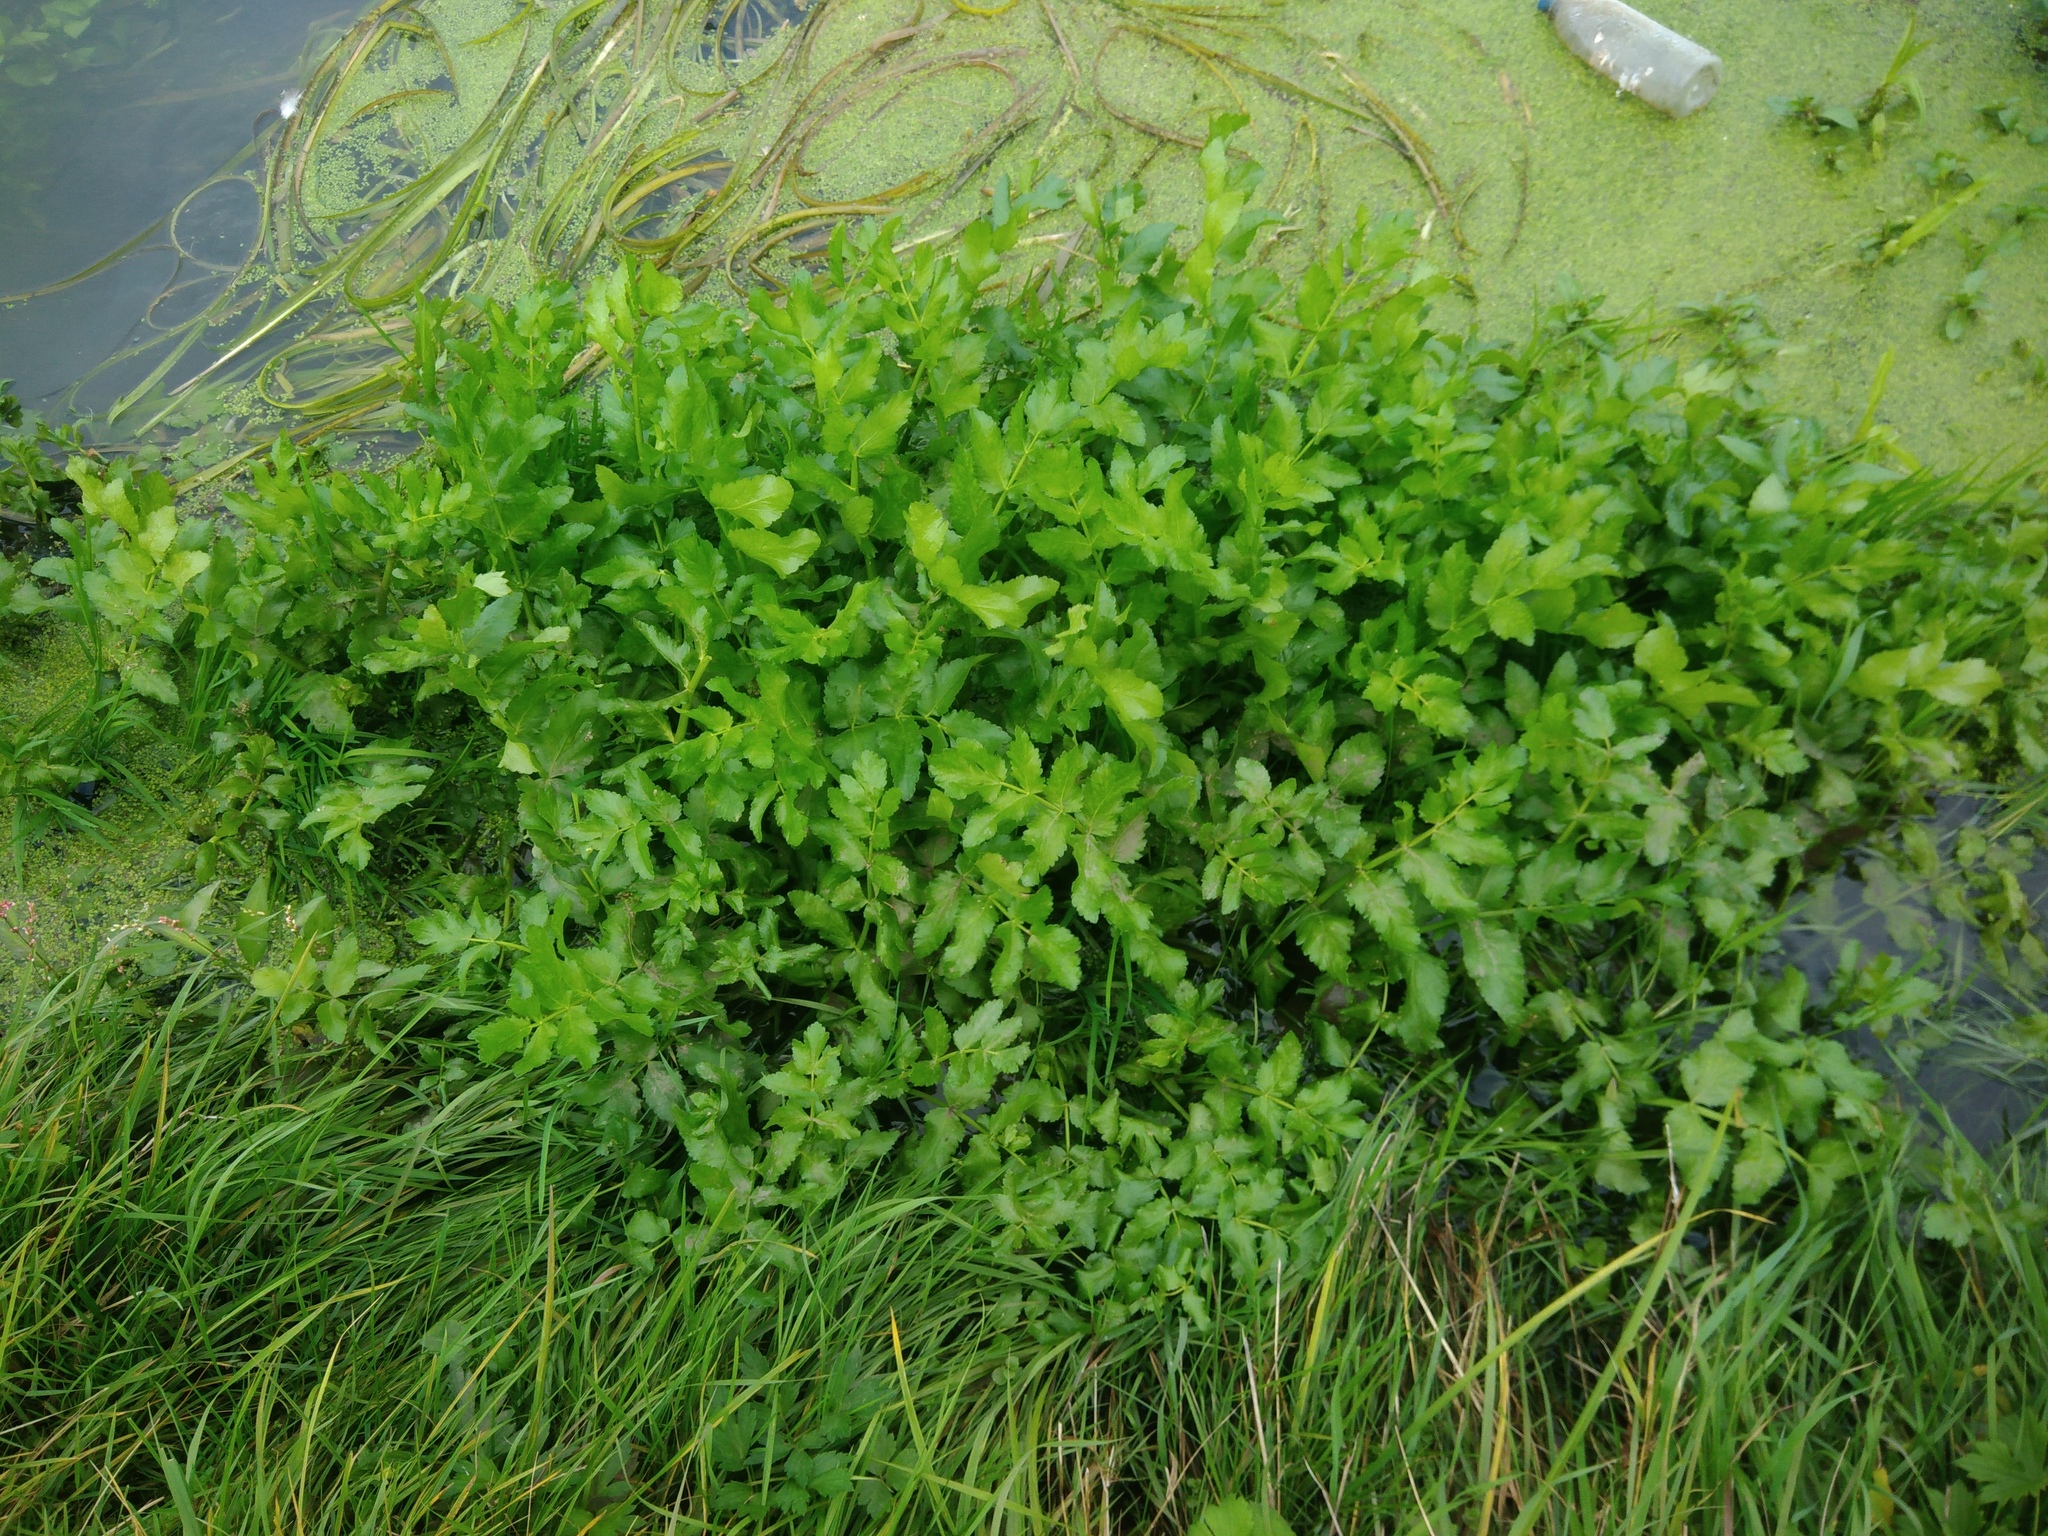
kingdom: Plantae
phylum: Tracheophyta
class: Magnoliopsida
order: Apiales
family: Apiaceae
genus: Berula
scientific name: Berula erecta
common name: Lesser water-parsnip
